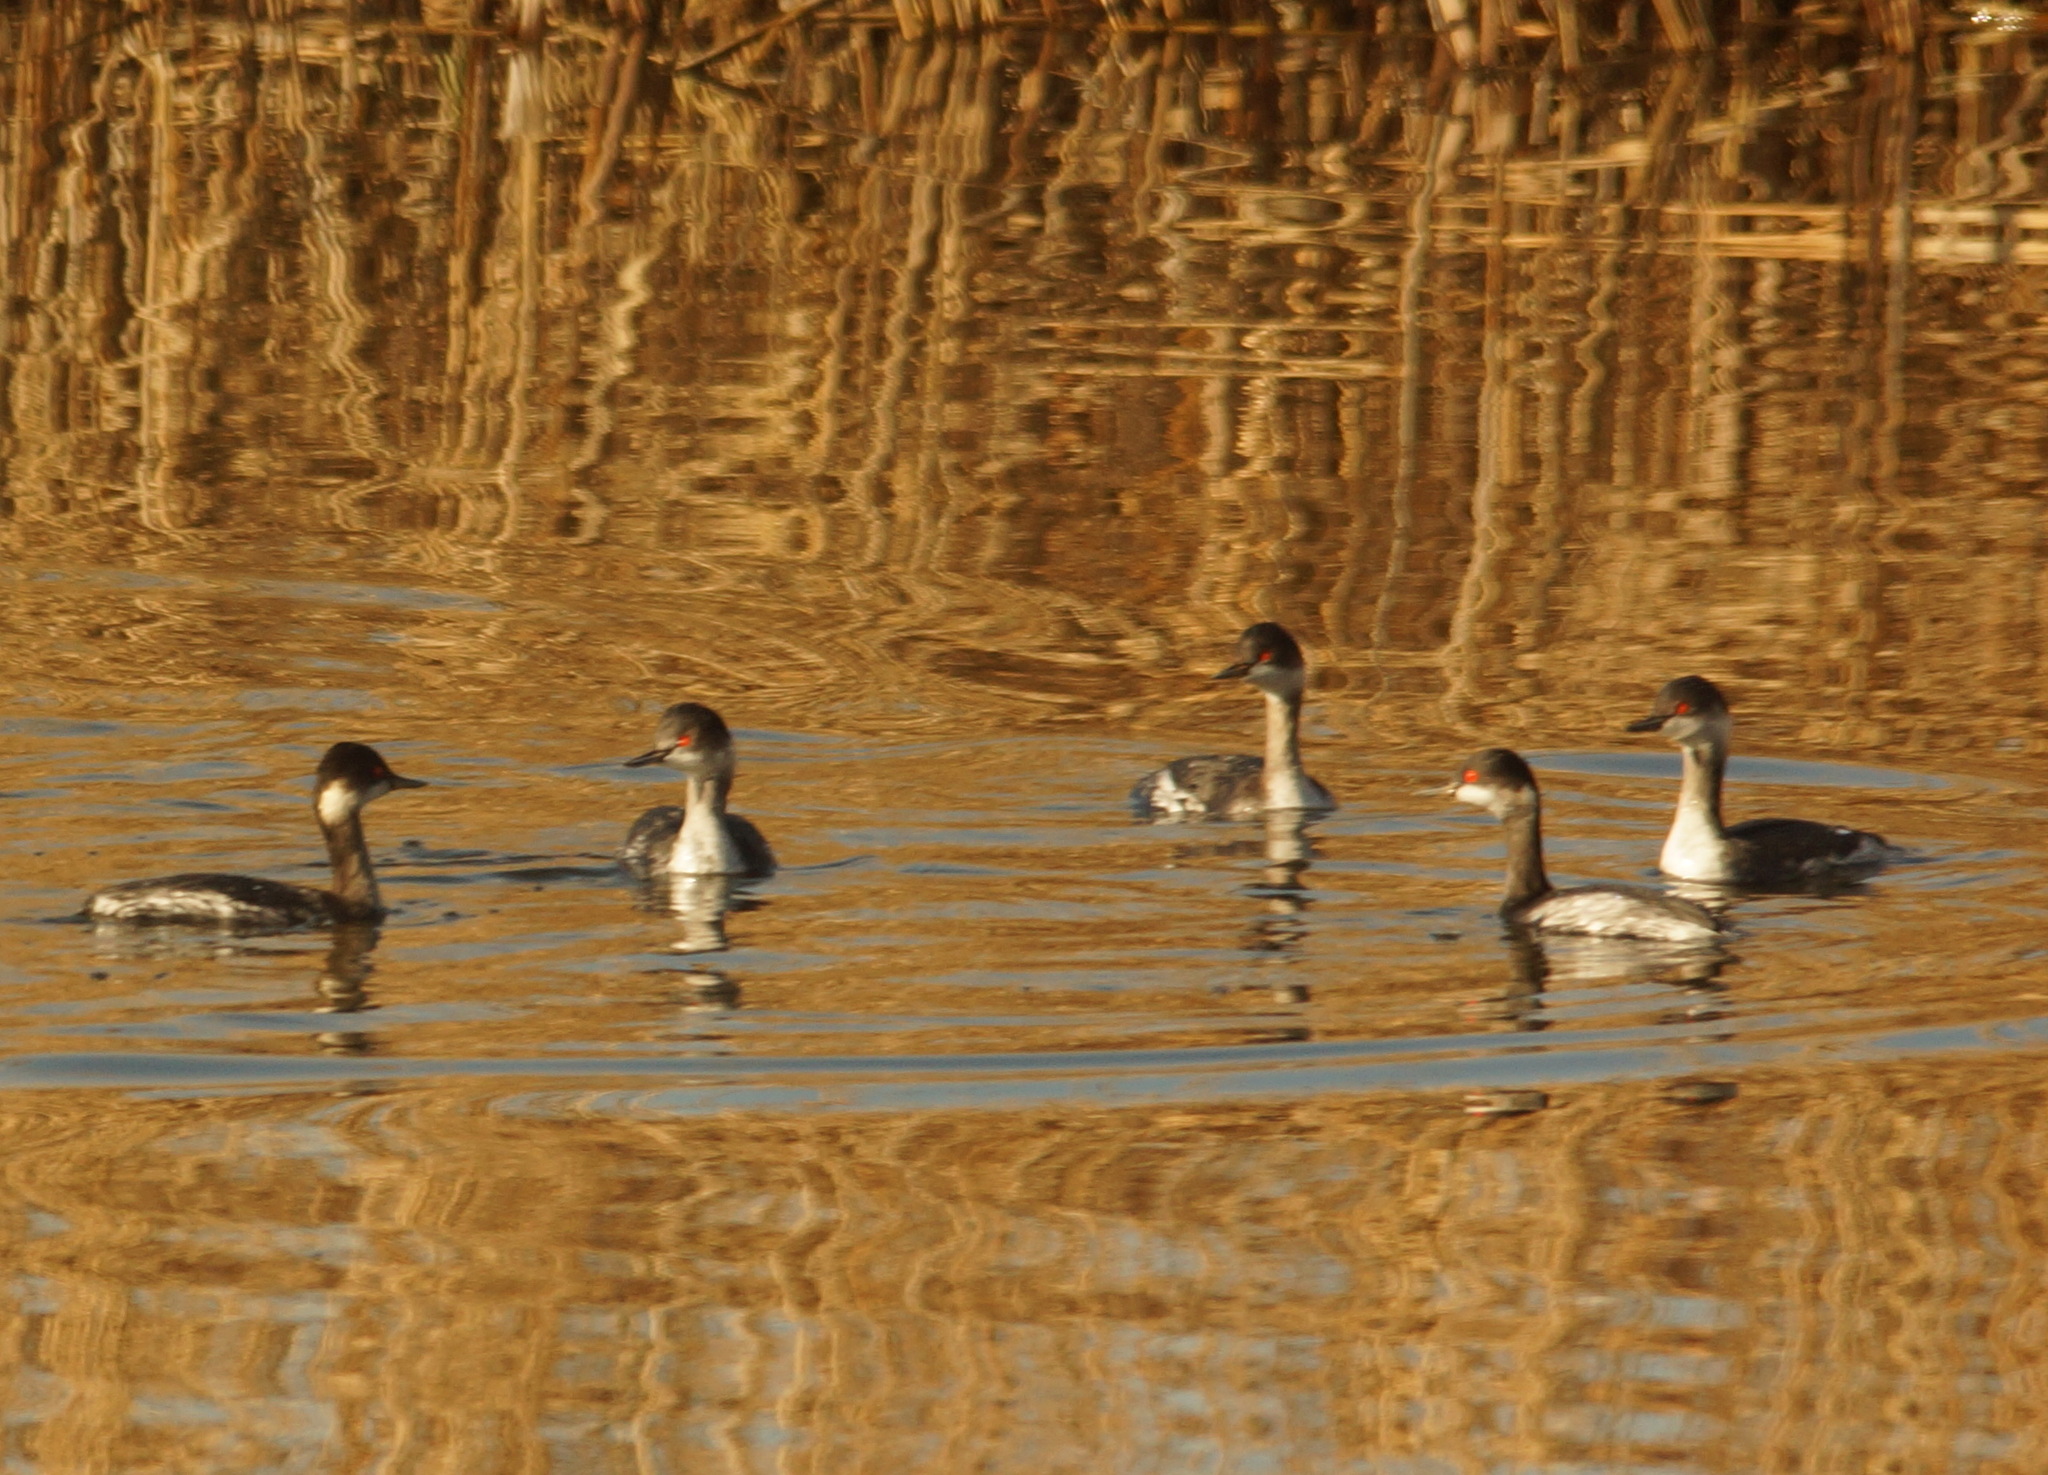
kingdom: Animalia
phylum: Chordata
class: Aves
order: Podicipediformes
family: Podicipedidae
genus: Podiceps
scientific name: Podiceps nigricollis
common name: Black-necked grebe
